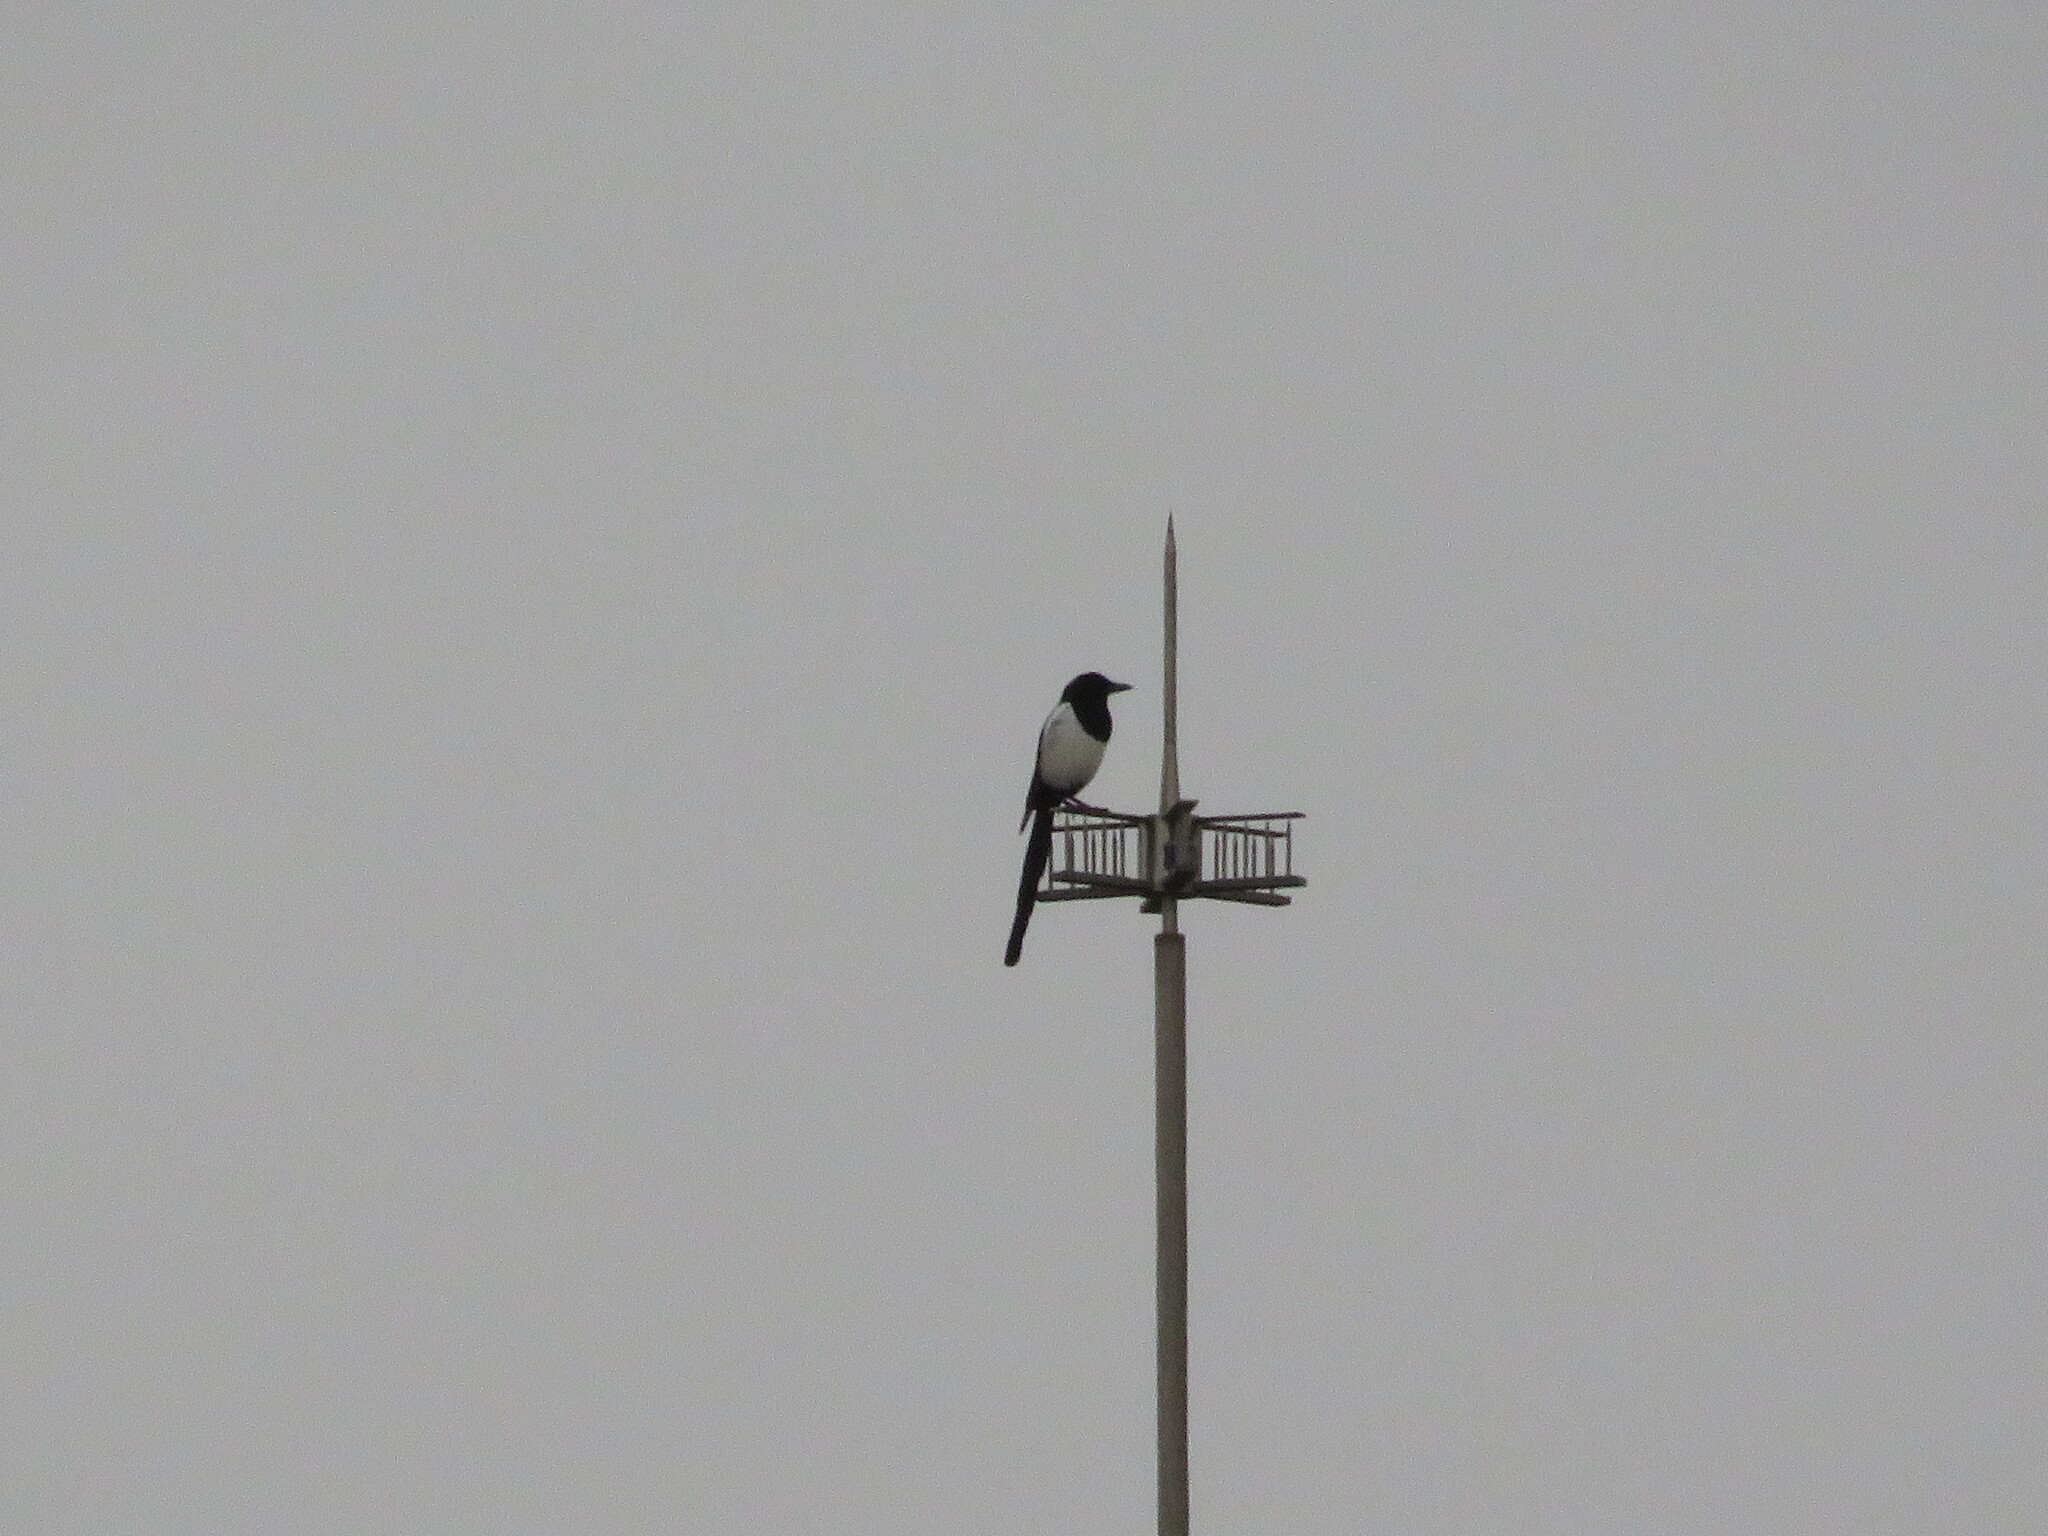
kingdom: Animalia
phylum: Chordata
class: Aves
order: Passeriformes
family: Corvidae
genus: Pica
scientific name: Pica pica
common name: Eurasian magpie
